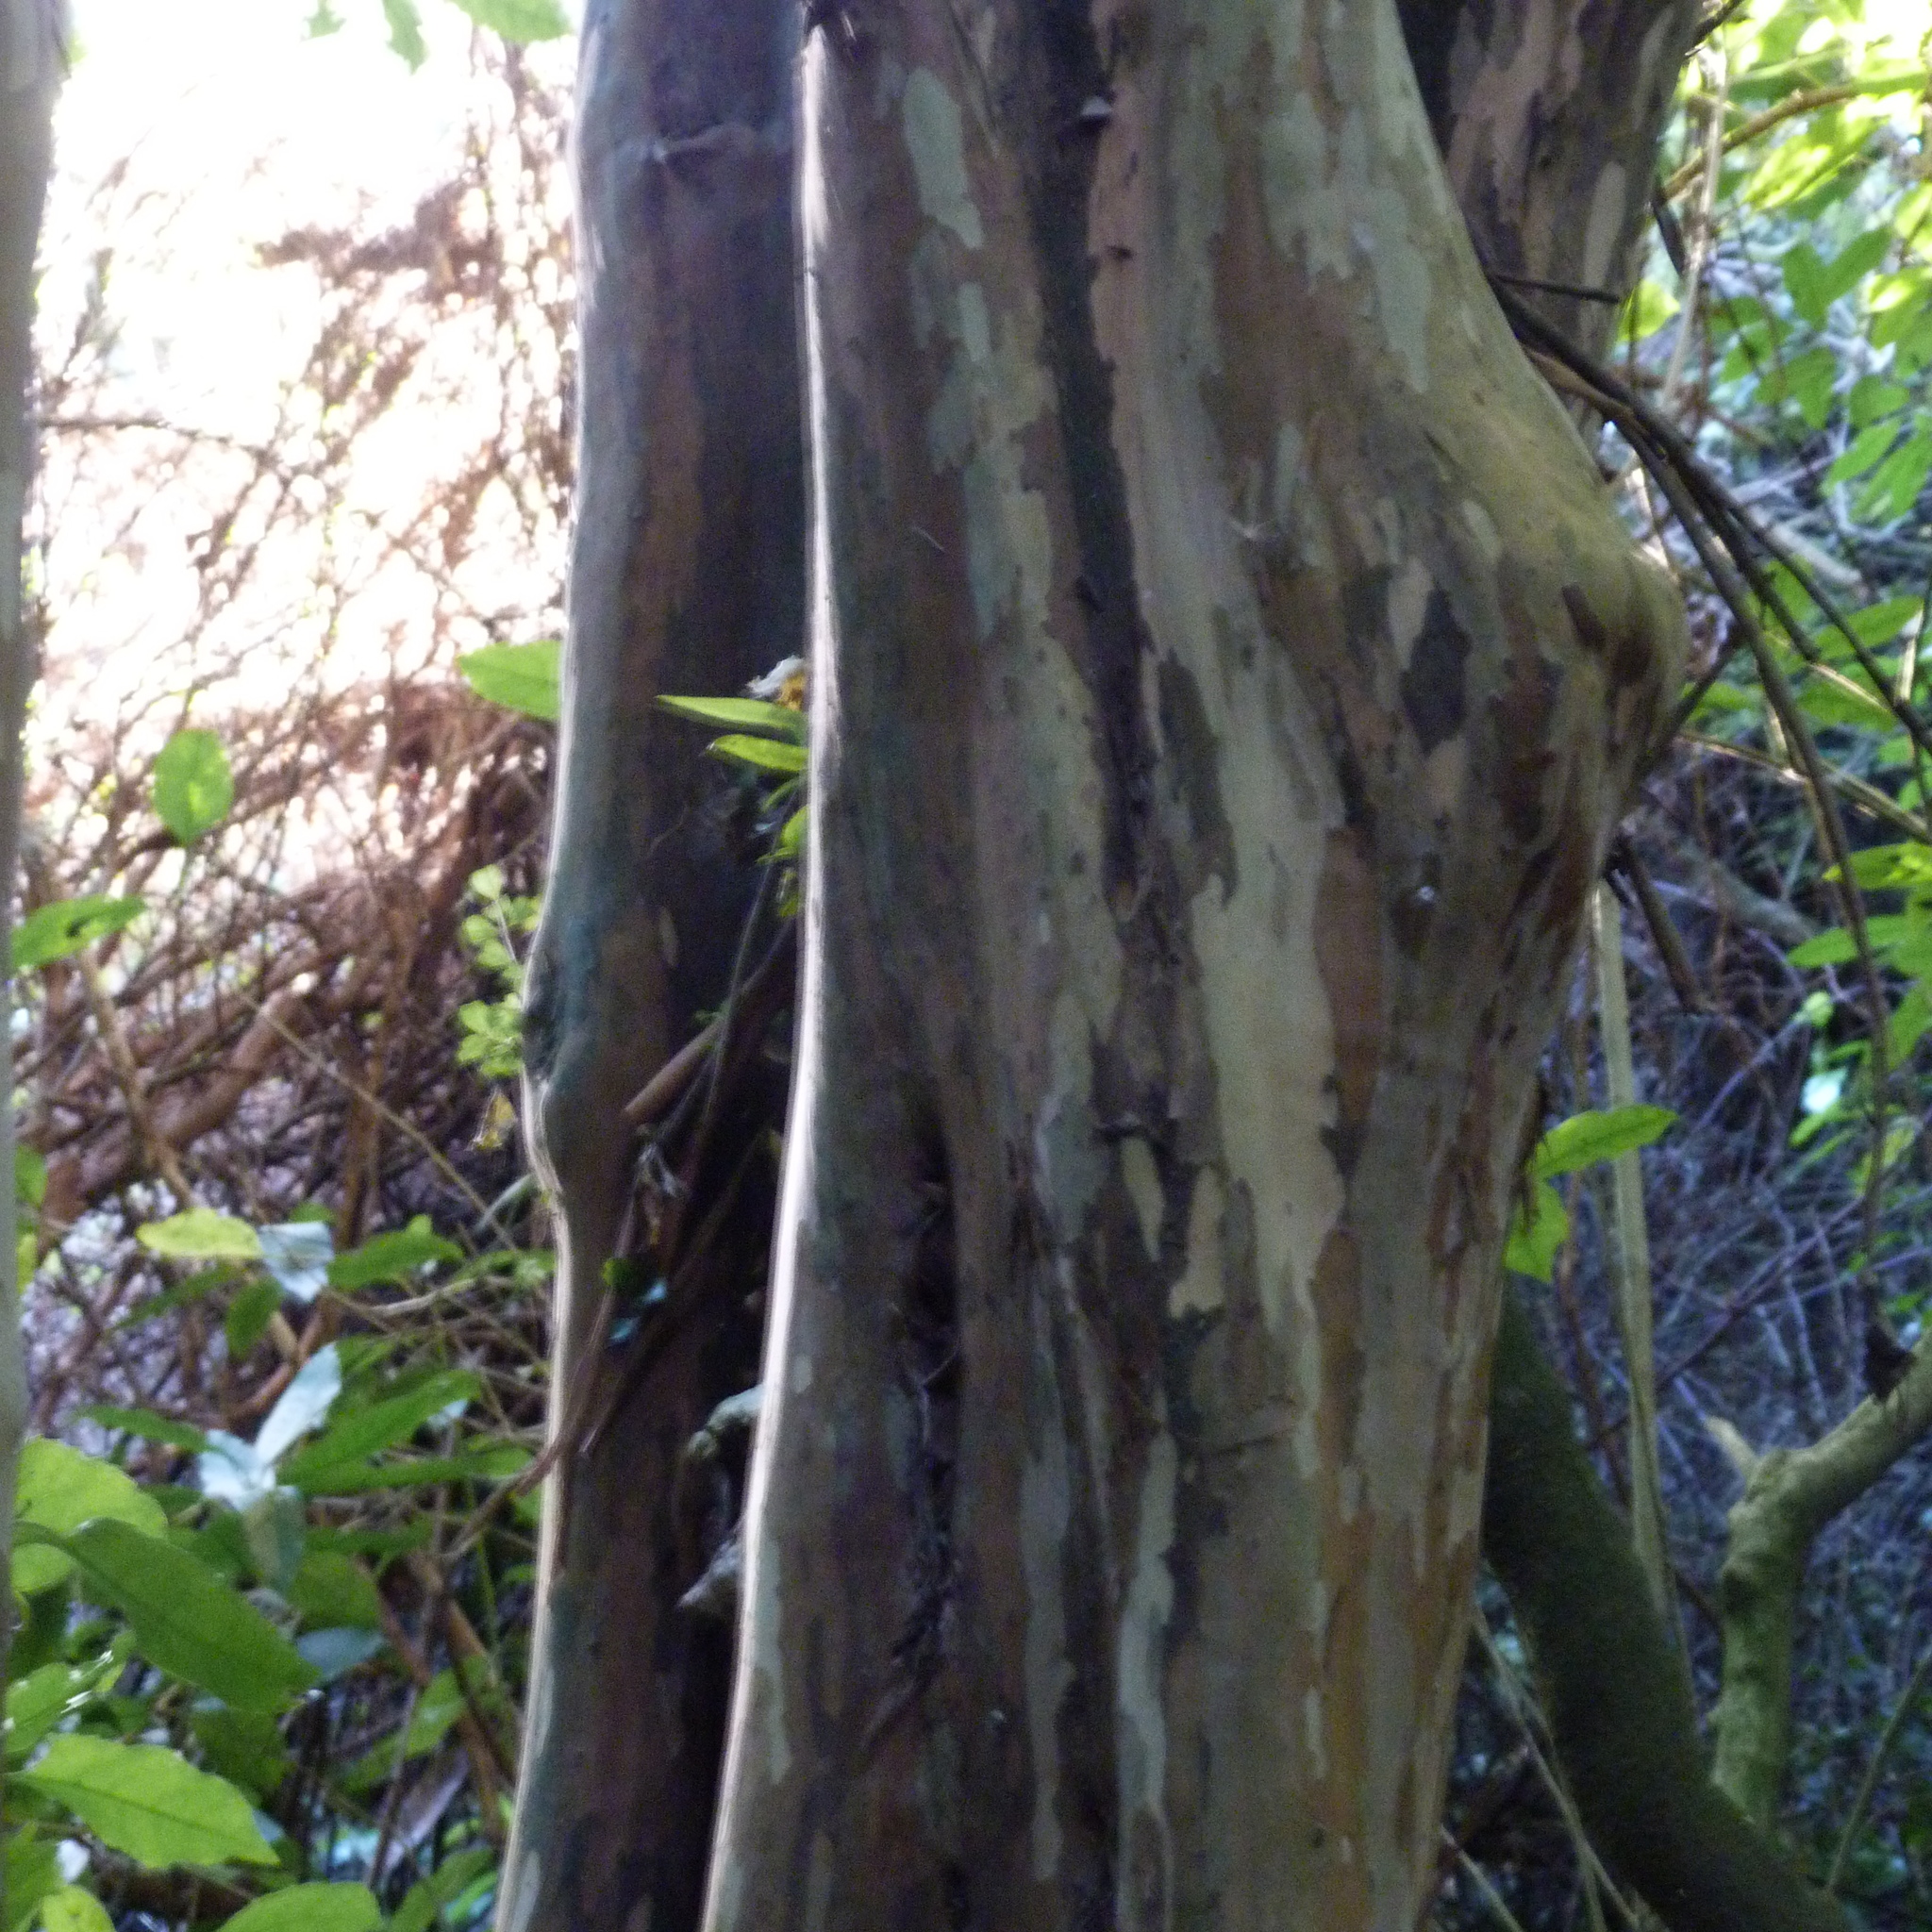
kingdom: Plantae
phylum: Tracheophyta
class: Magnoliopsida
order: Myrtales
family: Myrtaceae
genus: Lophomyrtus
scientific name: Lophomyrtus obcordata
